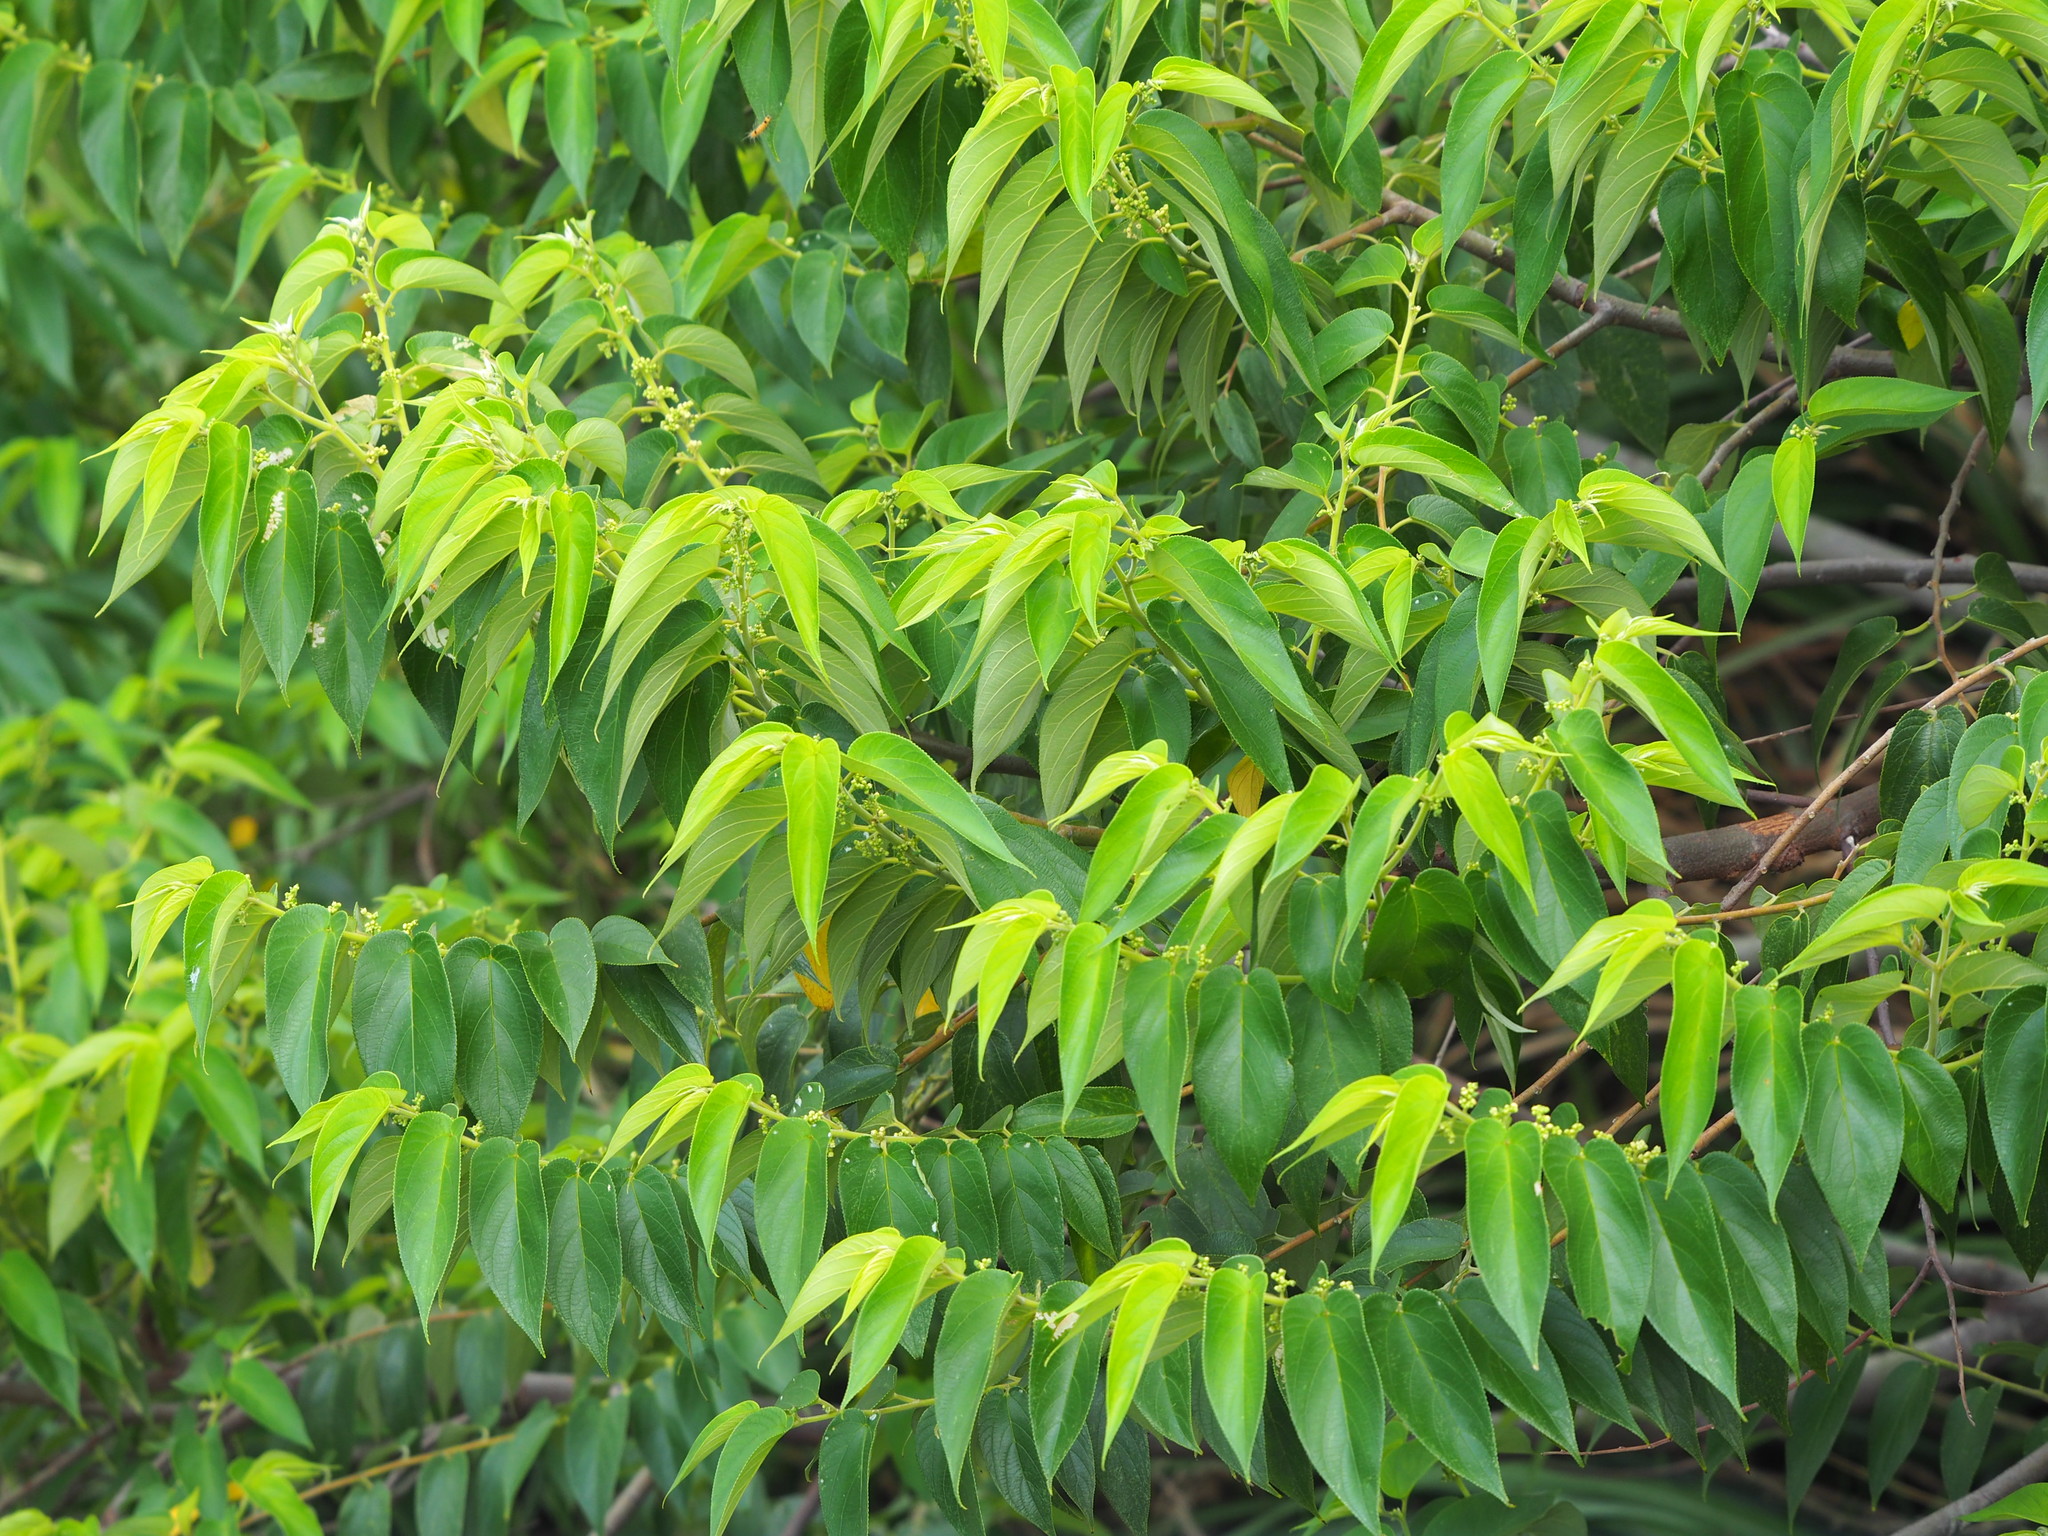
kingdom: Plantae
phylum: Tracheophyta
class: Magnoliopsida
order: Rosales
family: Cannabaceae
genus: Trema
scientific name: Trema orientale
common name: Indian charcoal tree
